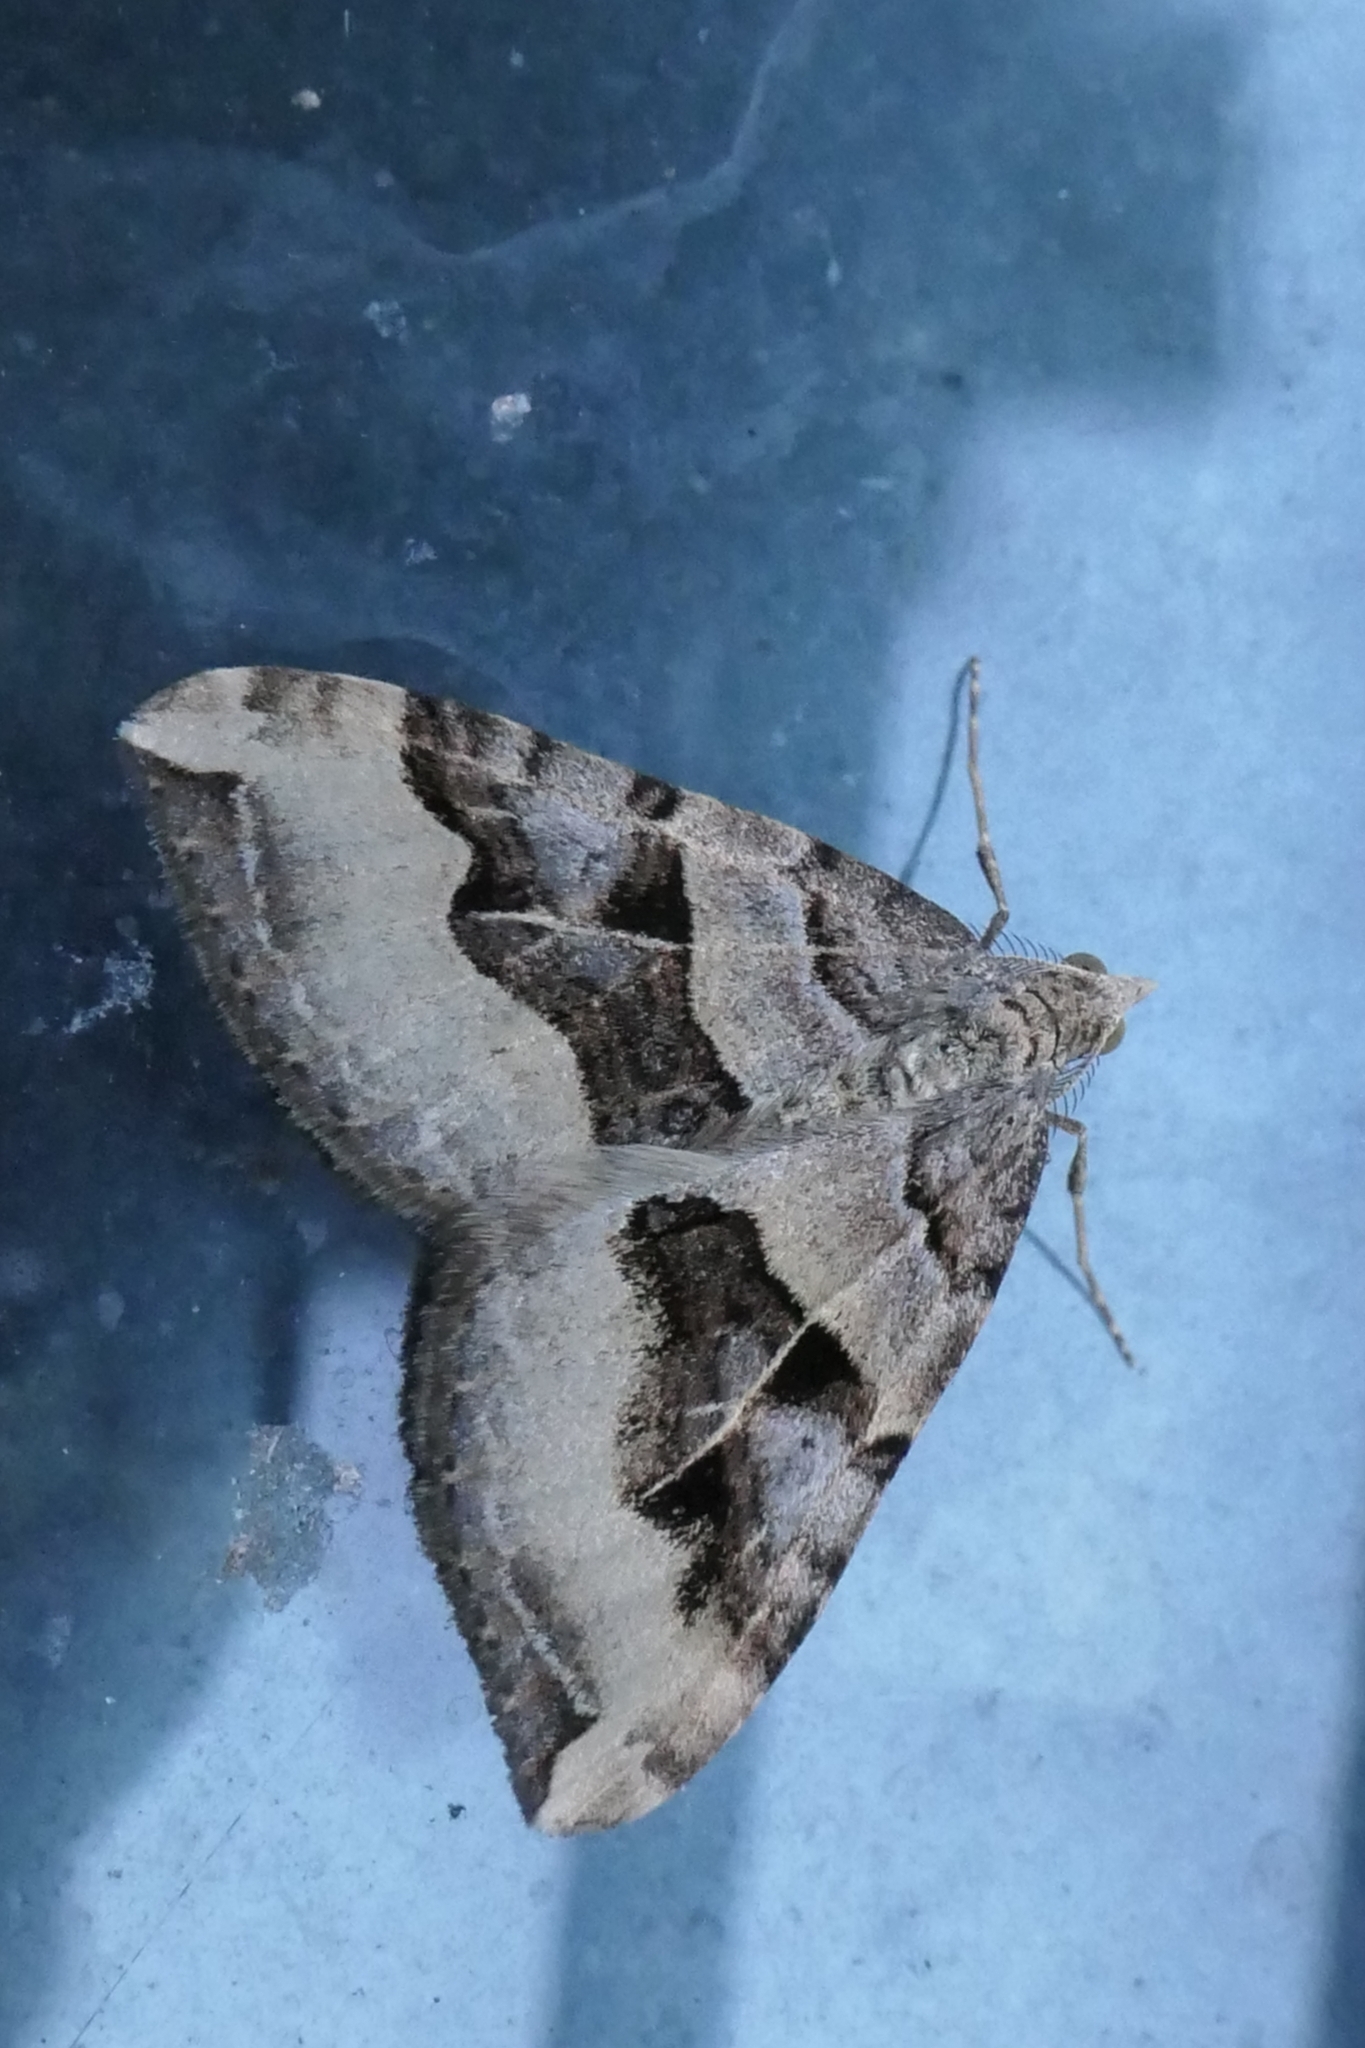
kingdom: Animalia
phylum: Arthropoda
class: Insecta
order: Lepidoptera
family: Geometridae
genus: Xanthorhoe
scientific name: Xanthorhoe semifissata
